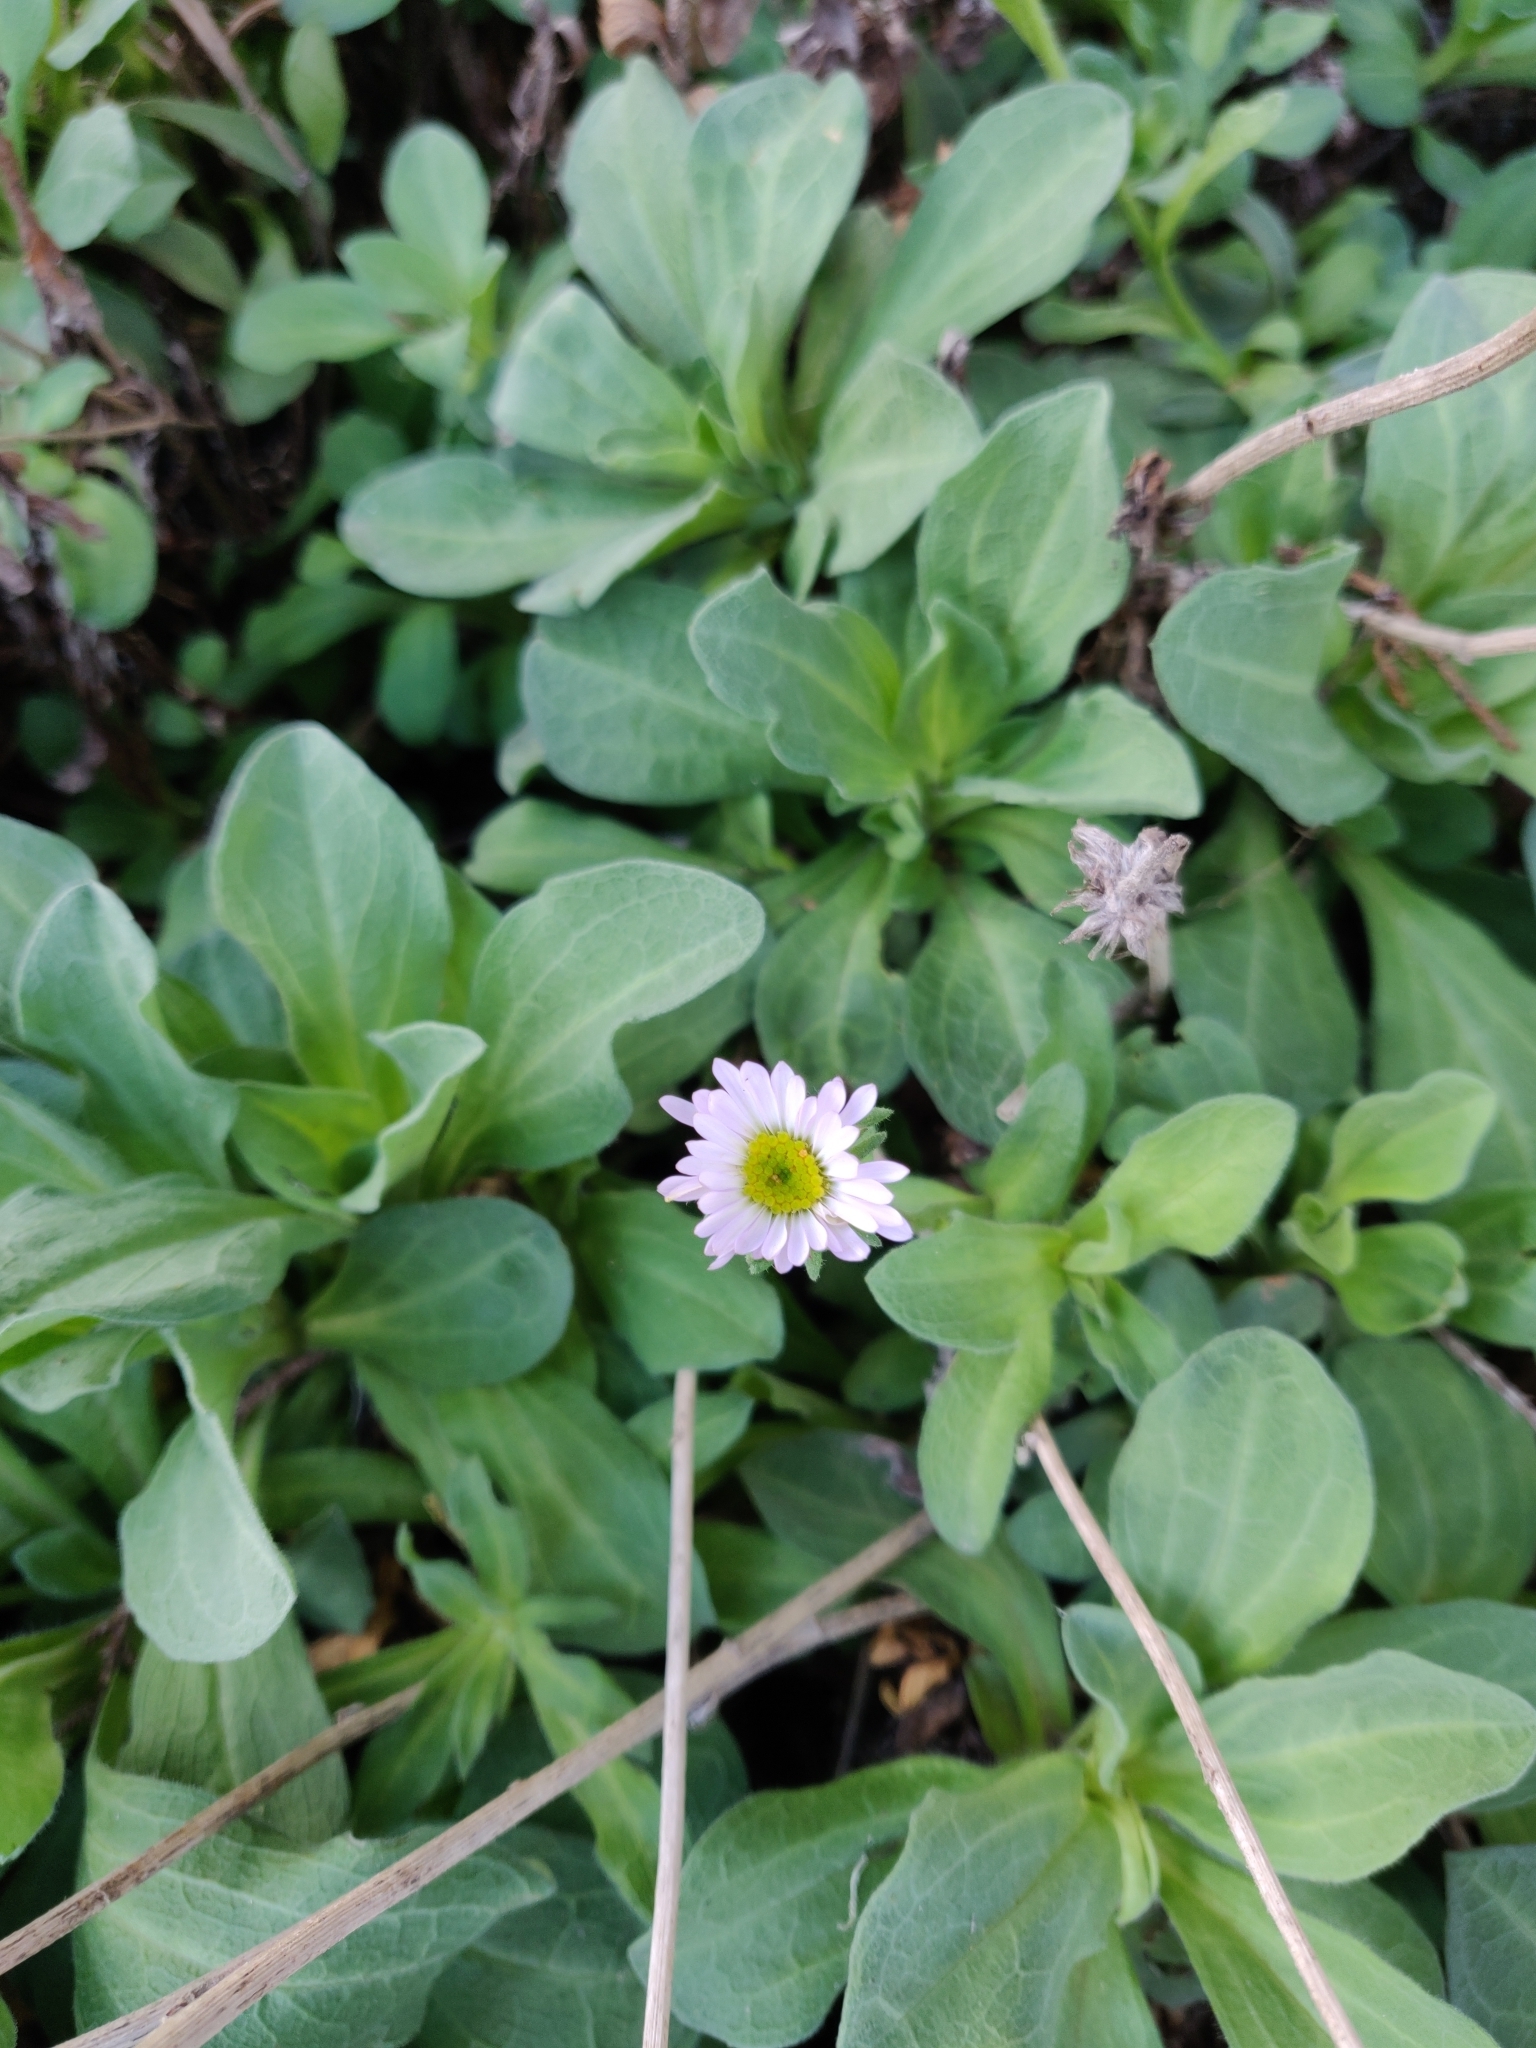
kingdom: Plantae
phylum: Tracheophyta
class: Magnoliopsida
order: Asterales
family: Asteraceae
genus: Erigeron
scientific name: Erigeron glaucus
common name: Seaside daisy
